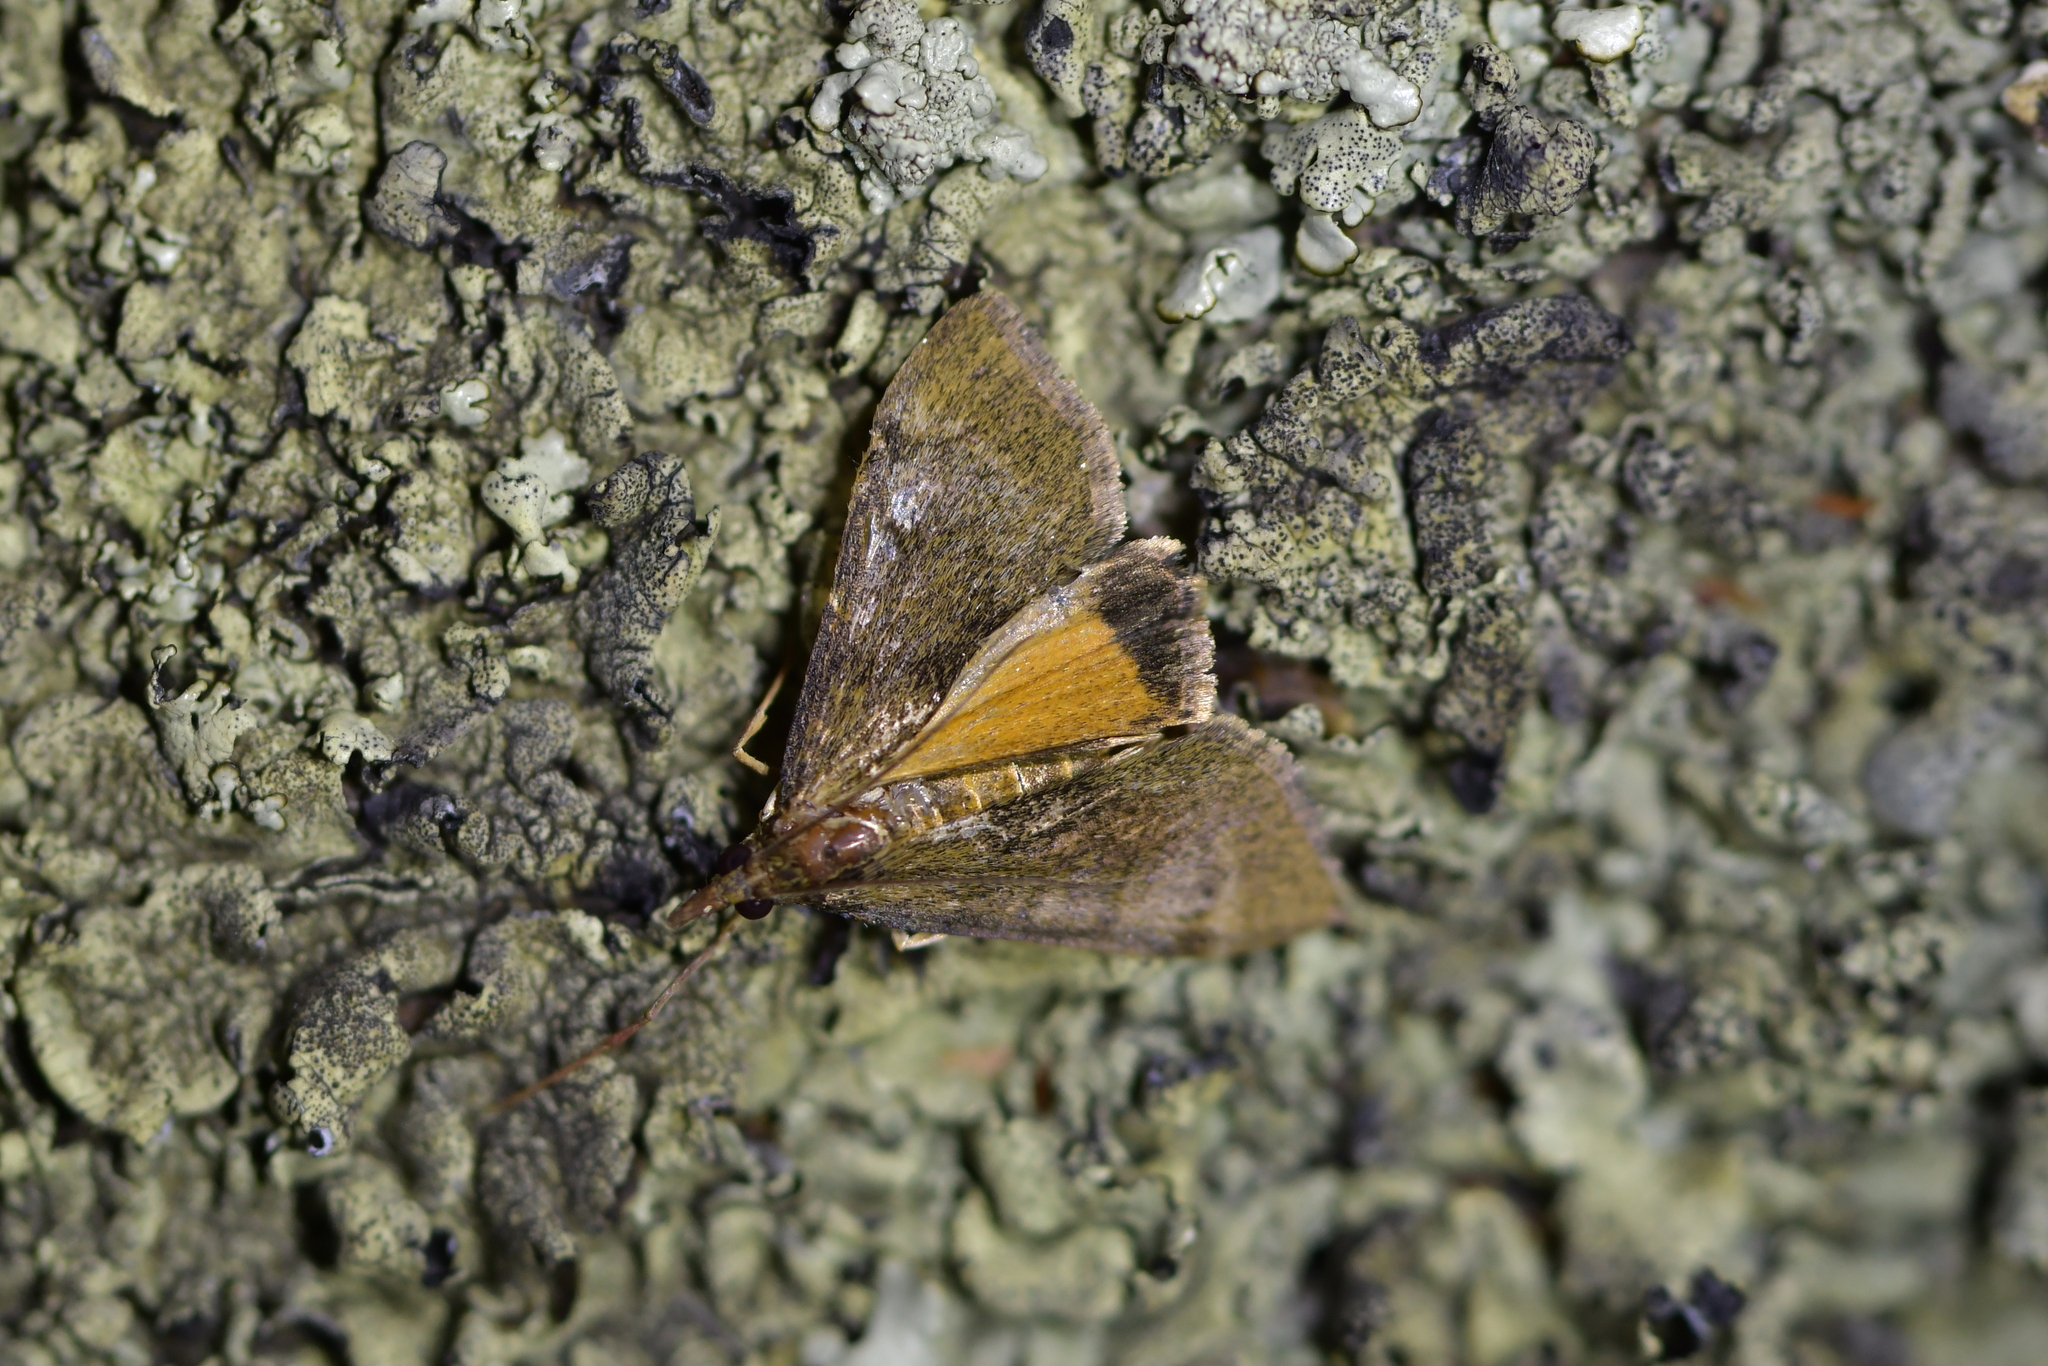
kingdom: Animalia
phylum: Arthropoda
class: Insecta
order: Lepidoptera
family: Crambidae
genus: Uresiphita
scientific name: Uresiphita
